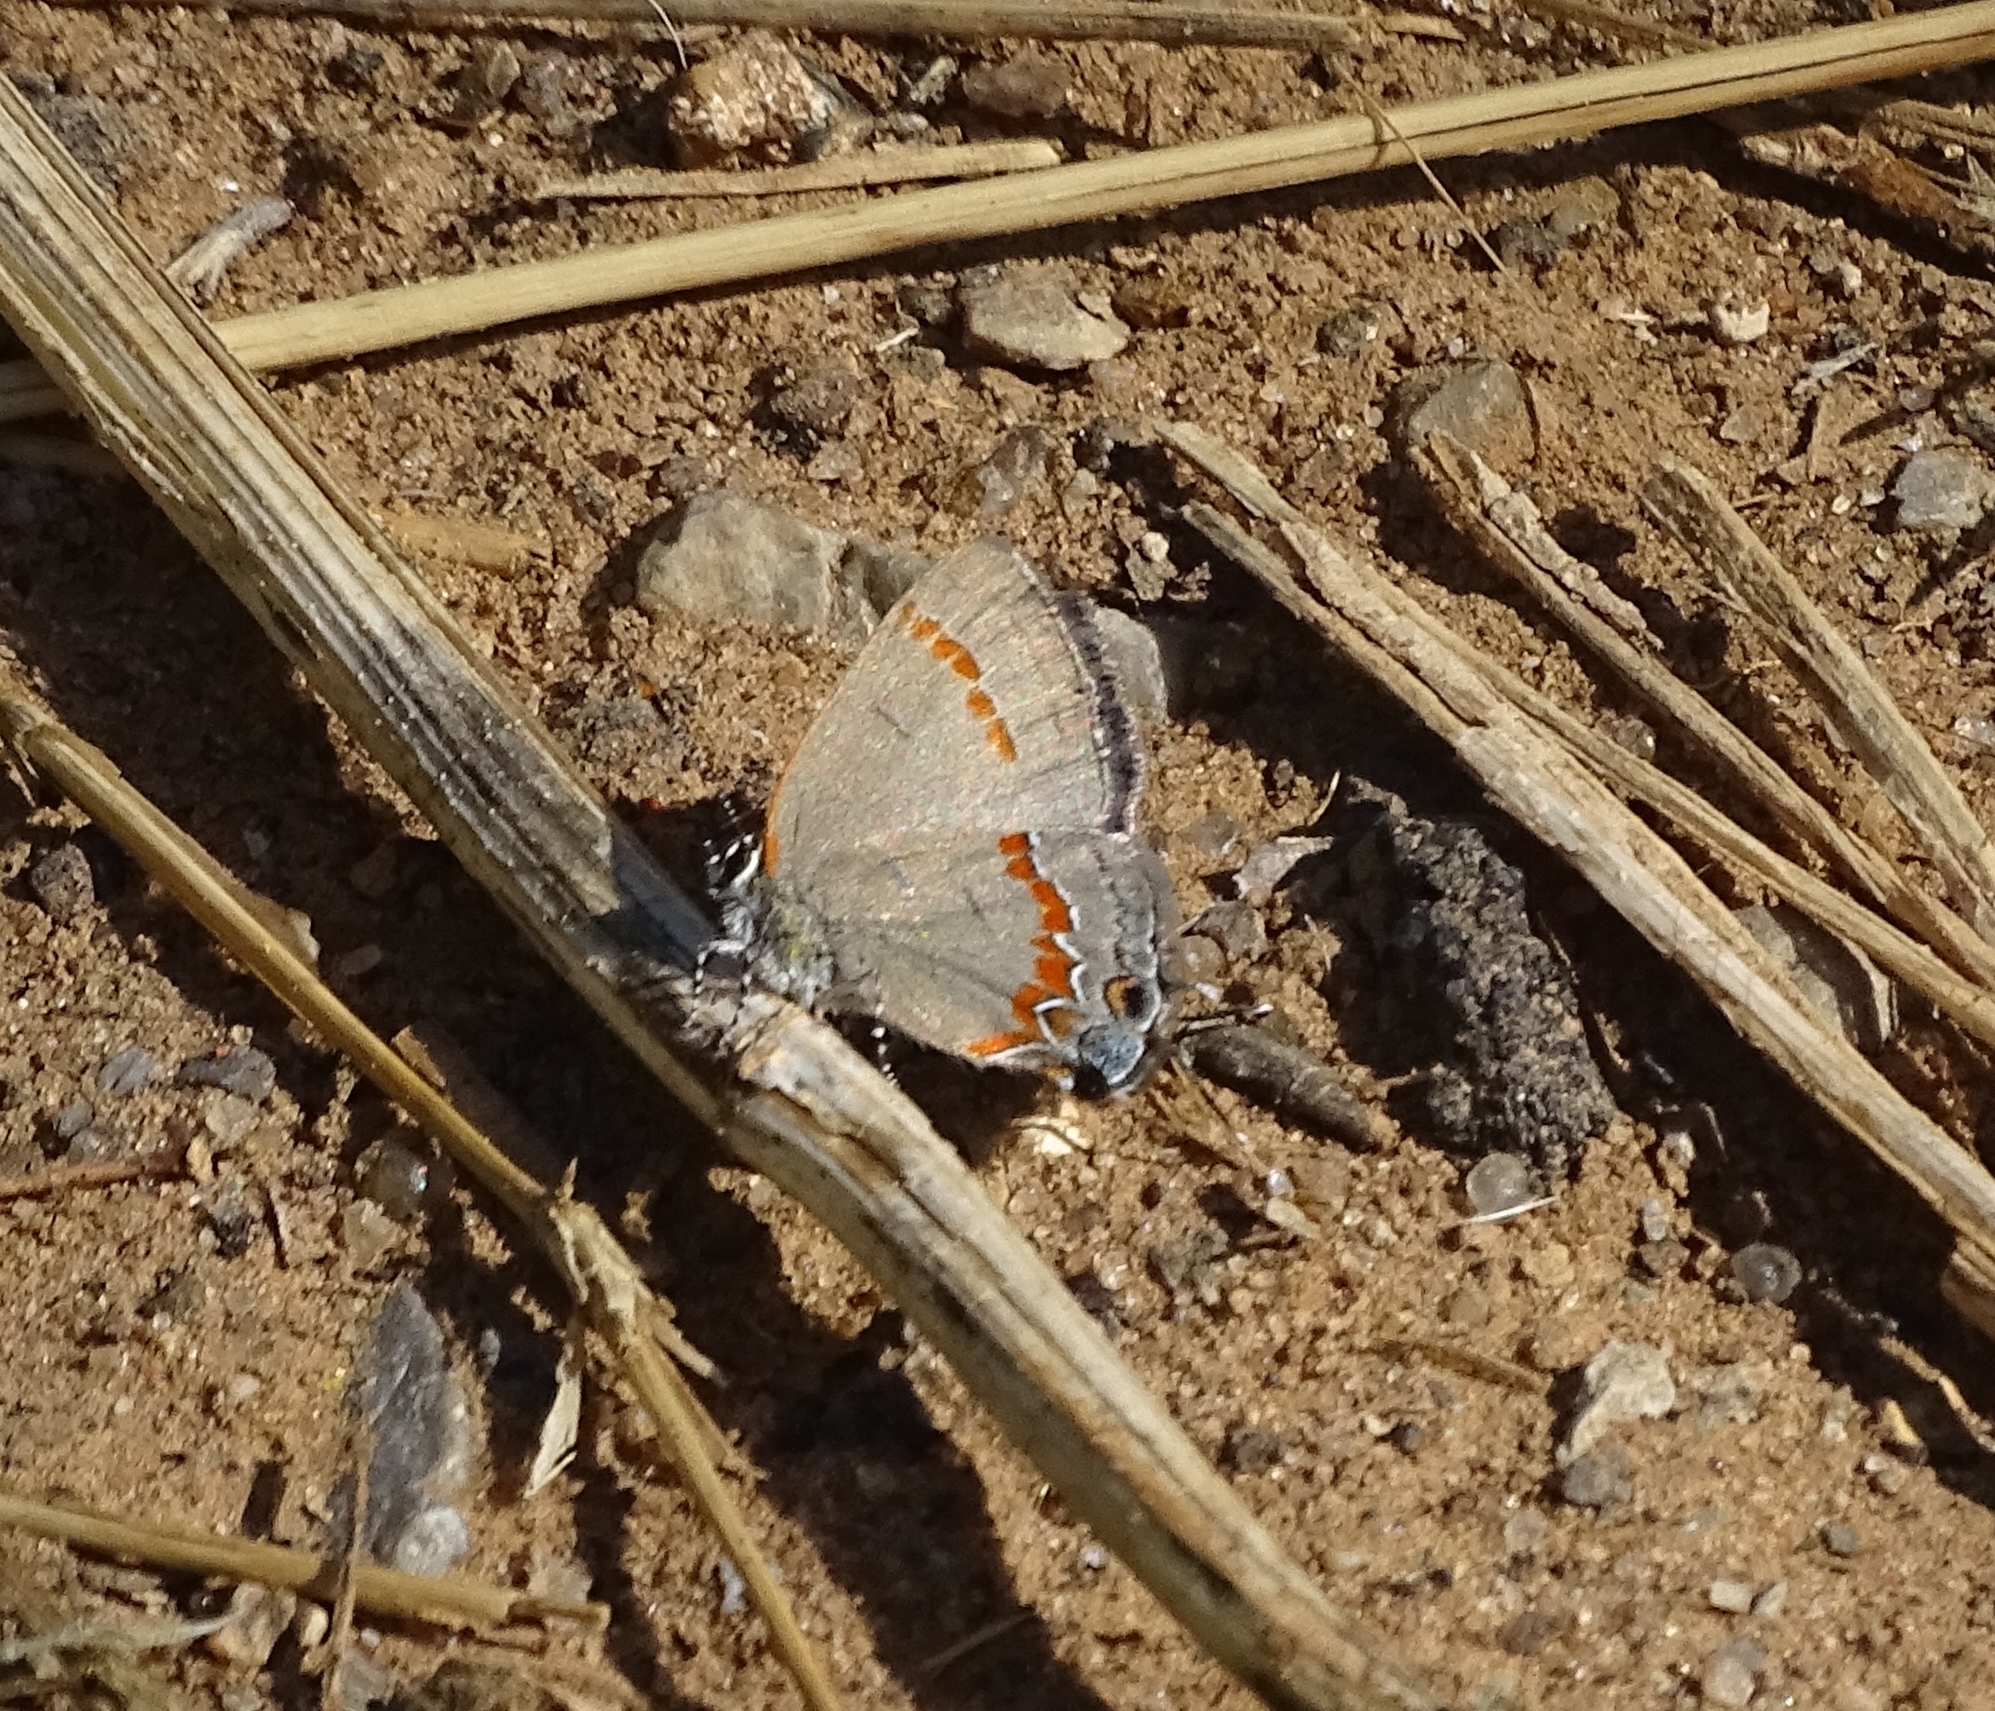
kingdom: Animalia
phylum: Arthropoda
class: Insecta
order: Lepidoptera
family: Lycaenidae
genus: Calycopis
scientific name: Calycopis cecrops
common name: Red-banded hairstreak
